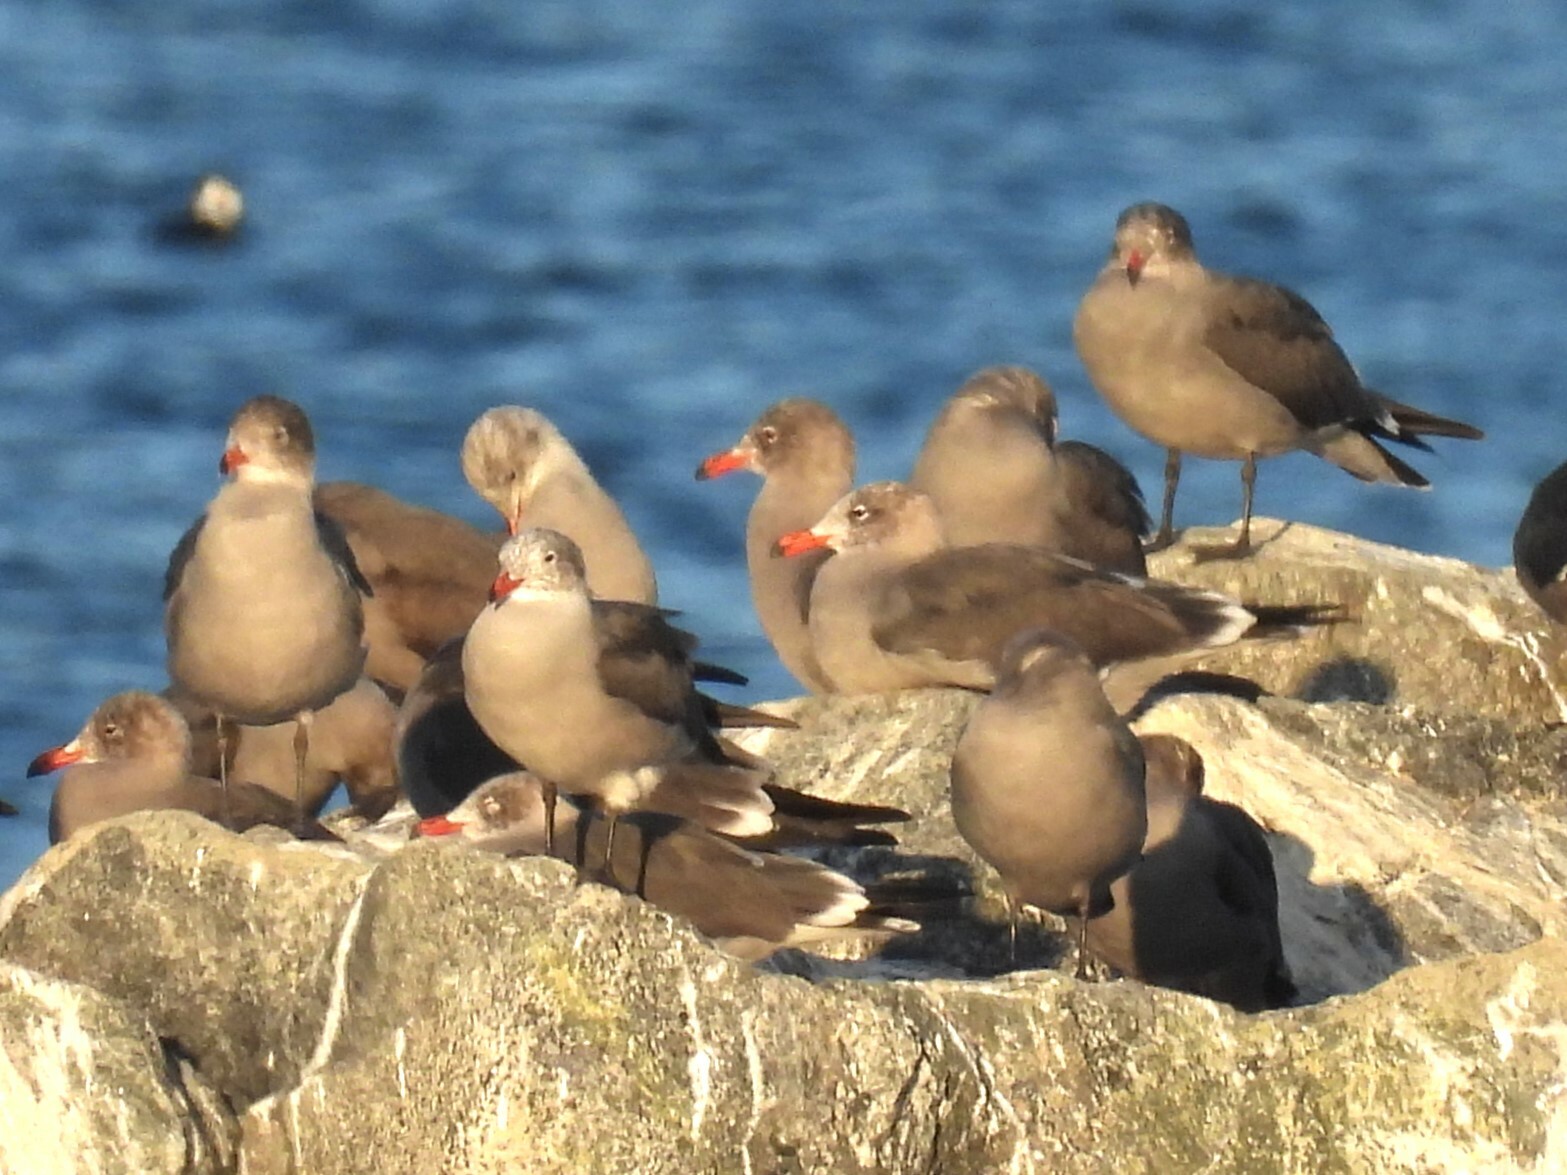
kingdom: Animalia
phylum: Chordata
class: Aves
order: Charadriiformes
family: Laridae
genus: Larus
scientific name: Larus heermanni
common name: Heermann's gull
